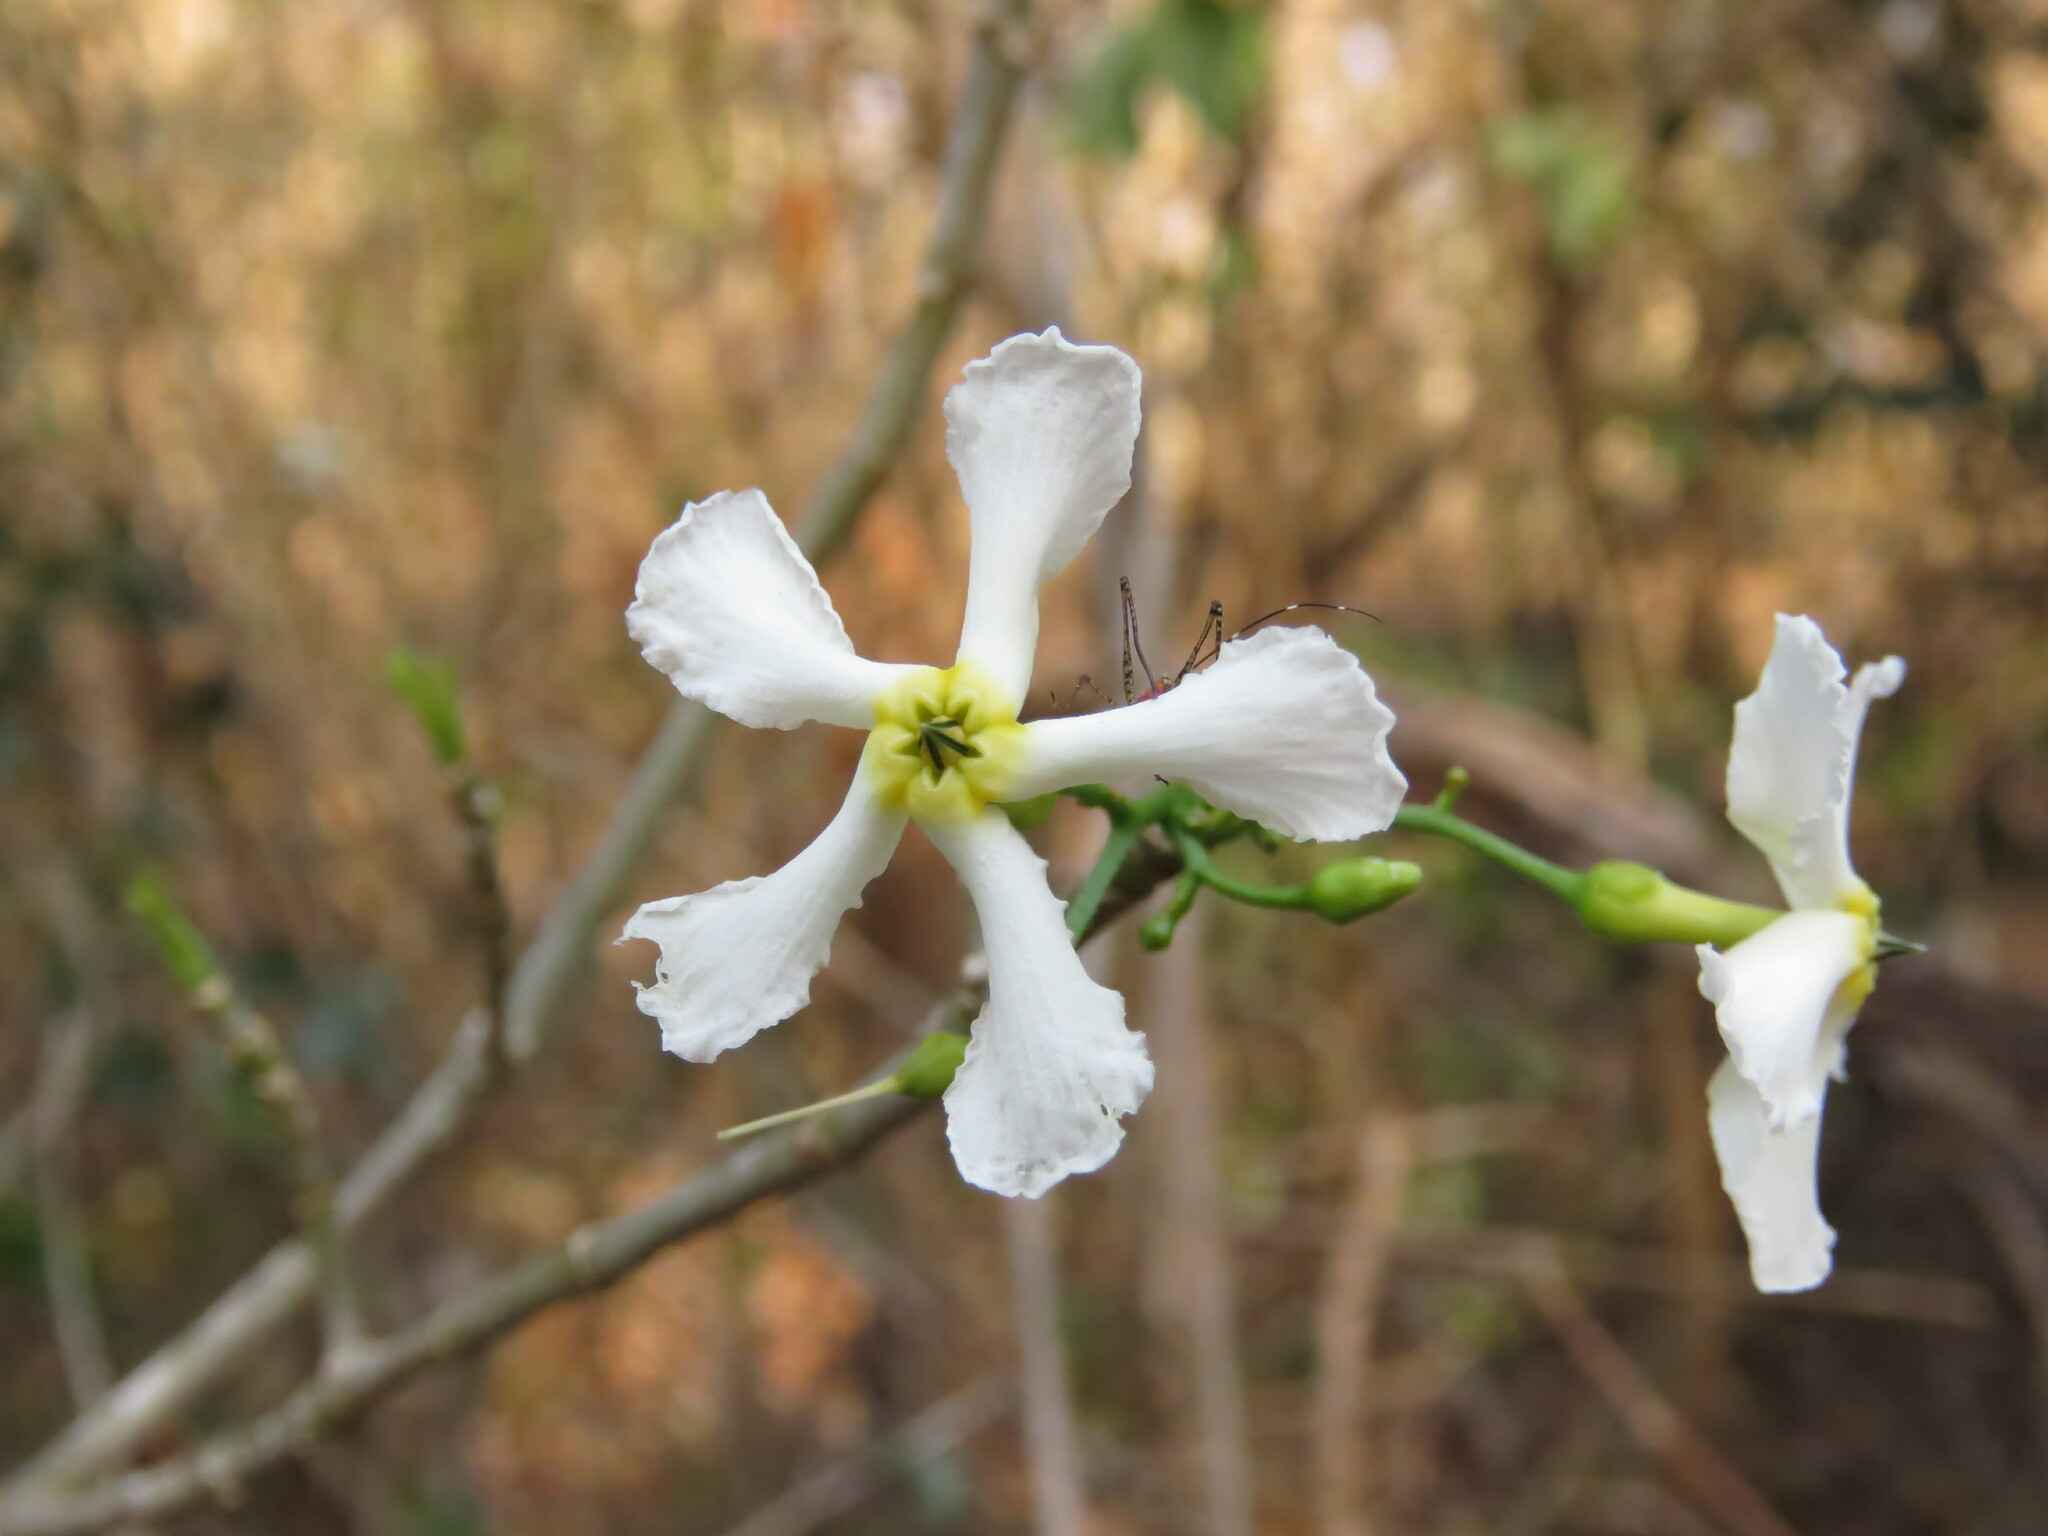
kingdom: Plantae
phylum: Tracheophyta
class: Magnoliopsida
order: Gentianales
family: Apocynaceae
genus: Tabernaemontana
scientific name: Tabernaemontana amygdalifolia
